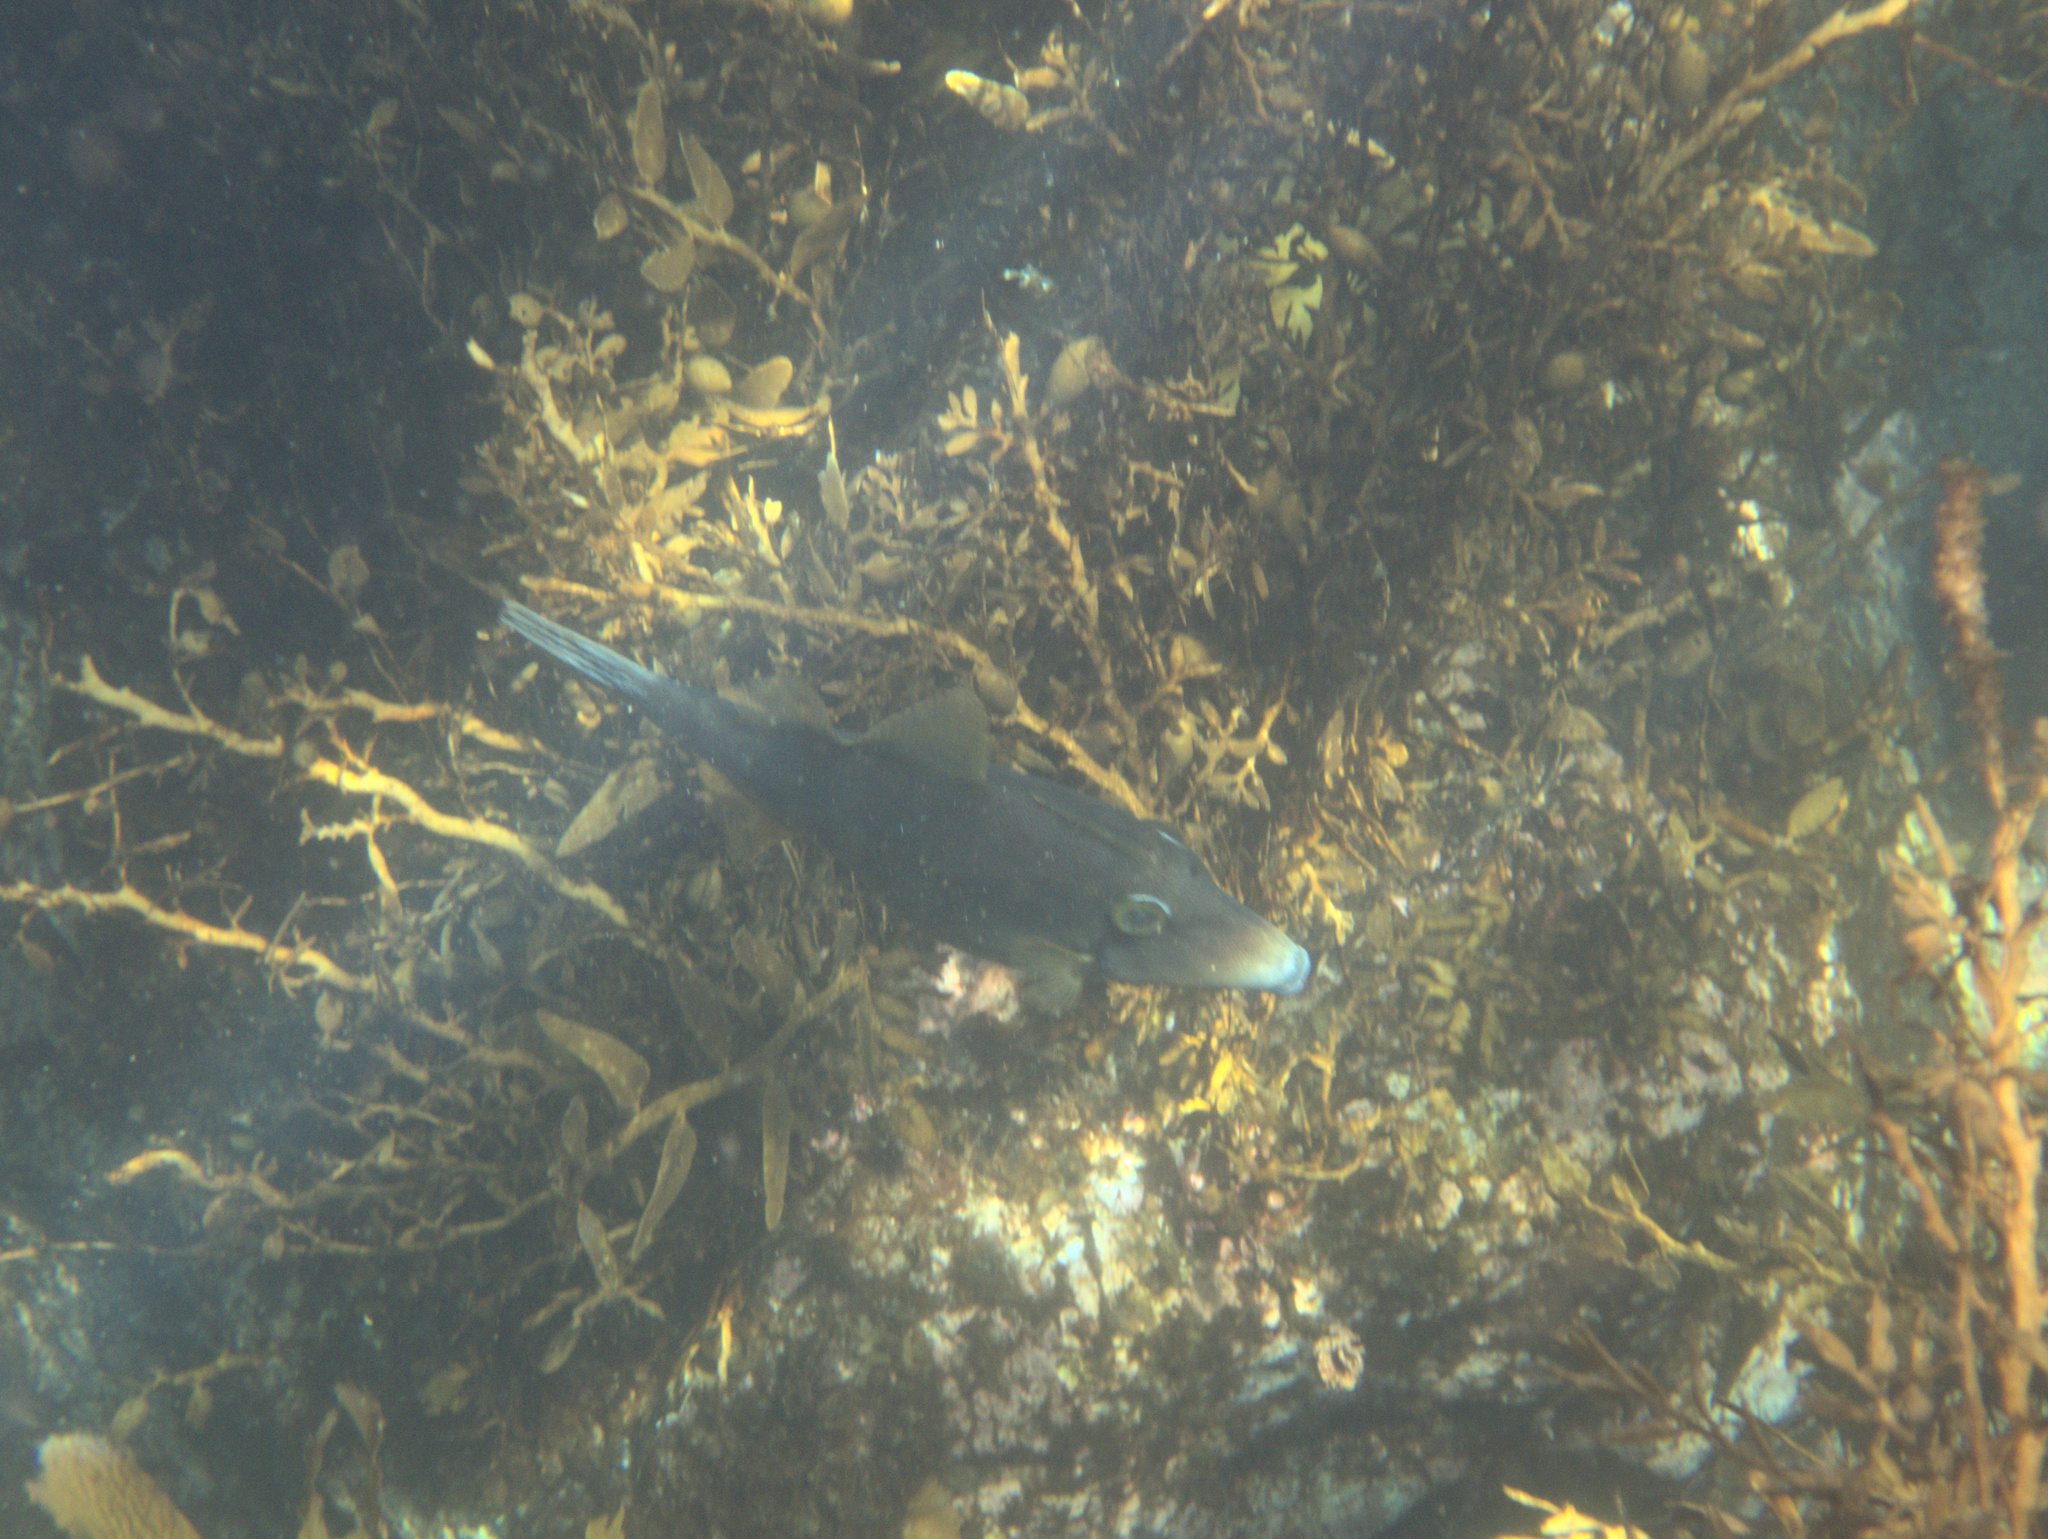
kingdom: Animalia
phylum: Chordata
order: Tetraodontiformes
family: Monacanthidae
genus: Meuschenia
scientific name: Meuschenia scaber
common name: Cosmopolitan leatherjacket
